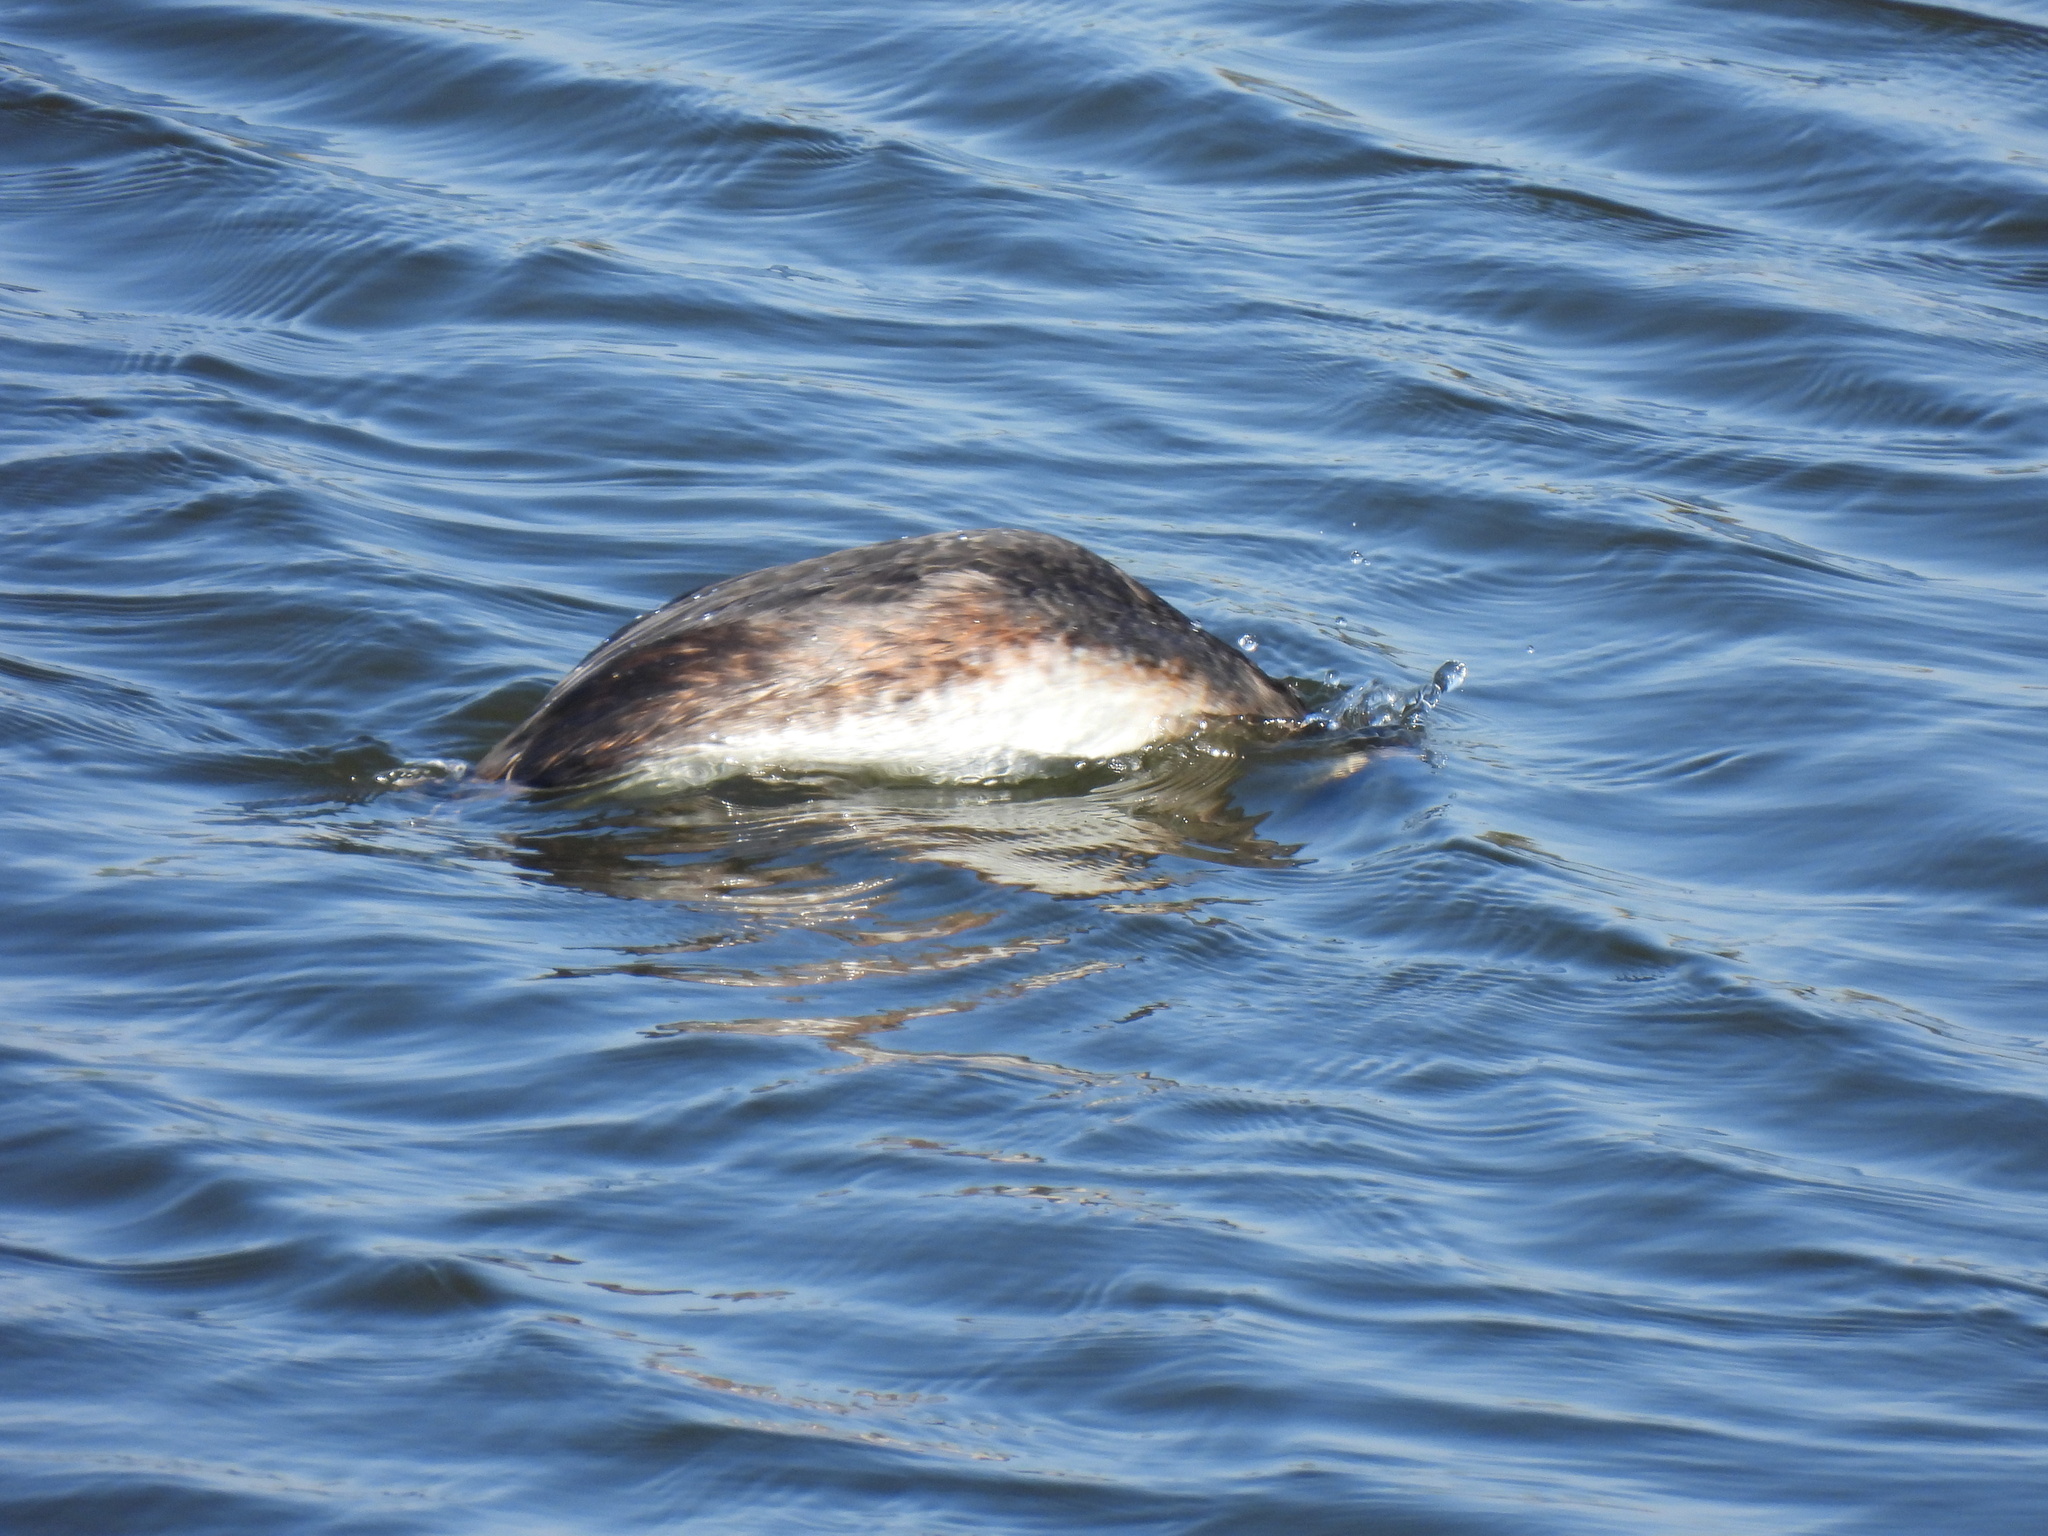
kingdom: Animalia
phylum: Chordata
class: Aves
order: Podicipediformes
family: Podicipedidae
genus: Podiceps
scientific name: Podiceps cristatus
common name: Great crested grebe
